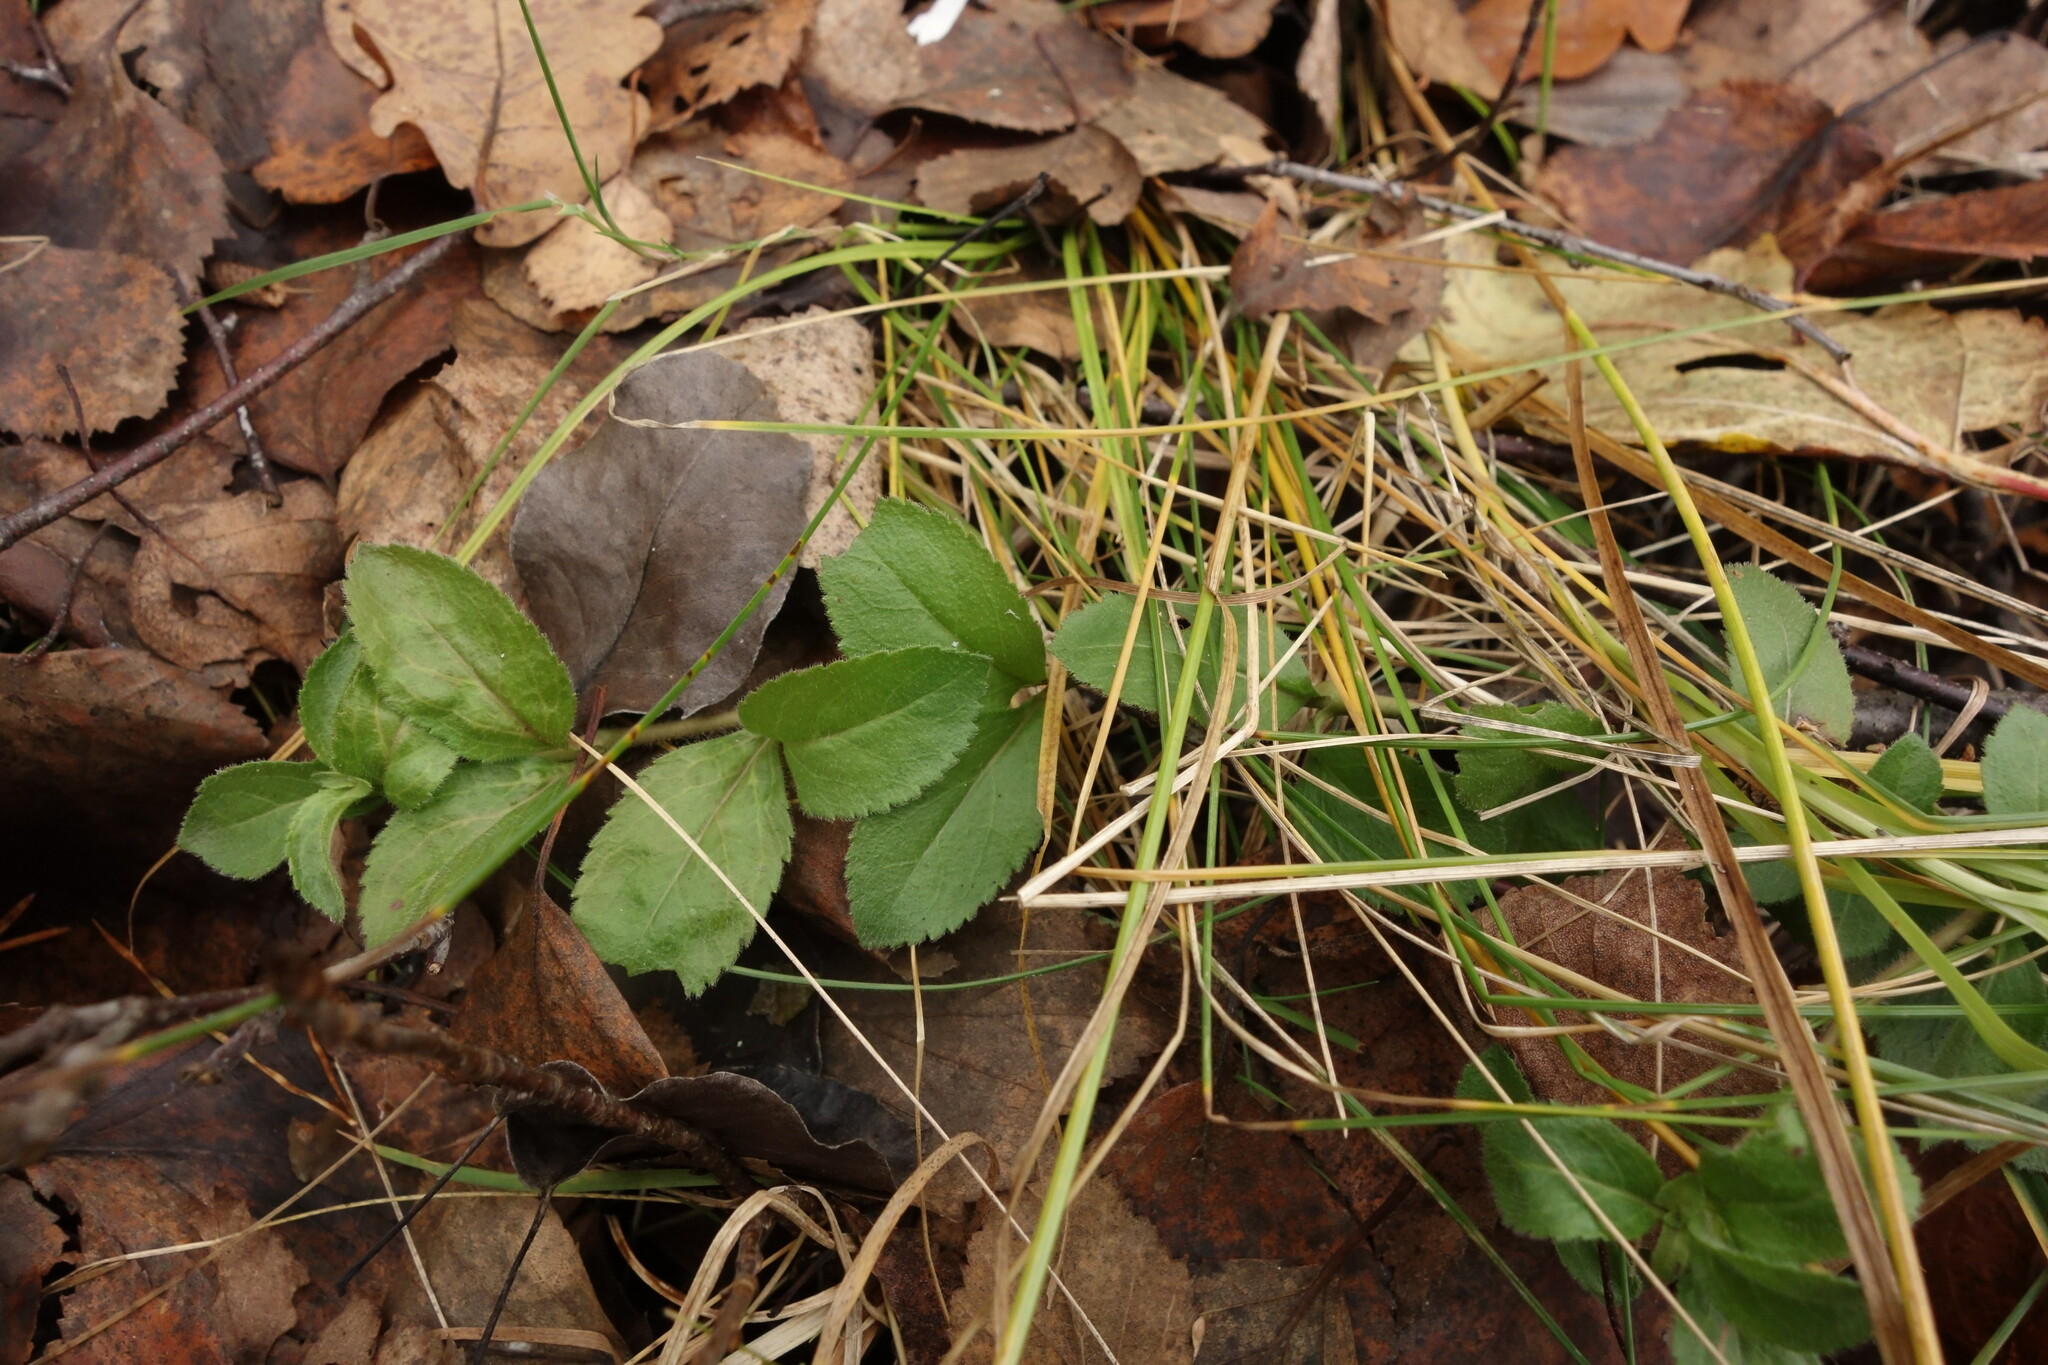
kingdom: Plantae
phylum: Tracheophyta
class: Magnoliopsida
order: Lamiales
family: Plantaginaceae
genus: Veronica
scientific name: Veronica officinalis
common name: Common speedwell
